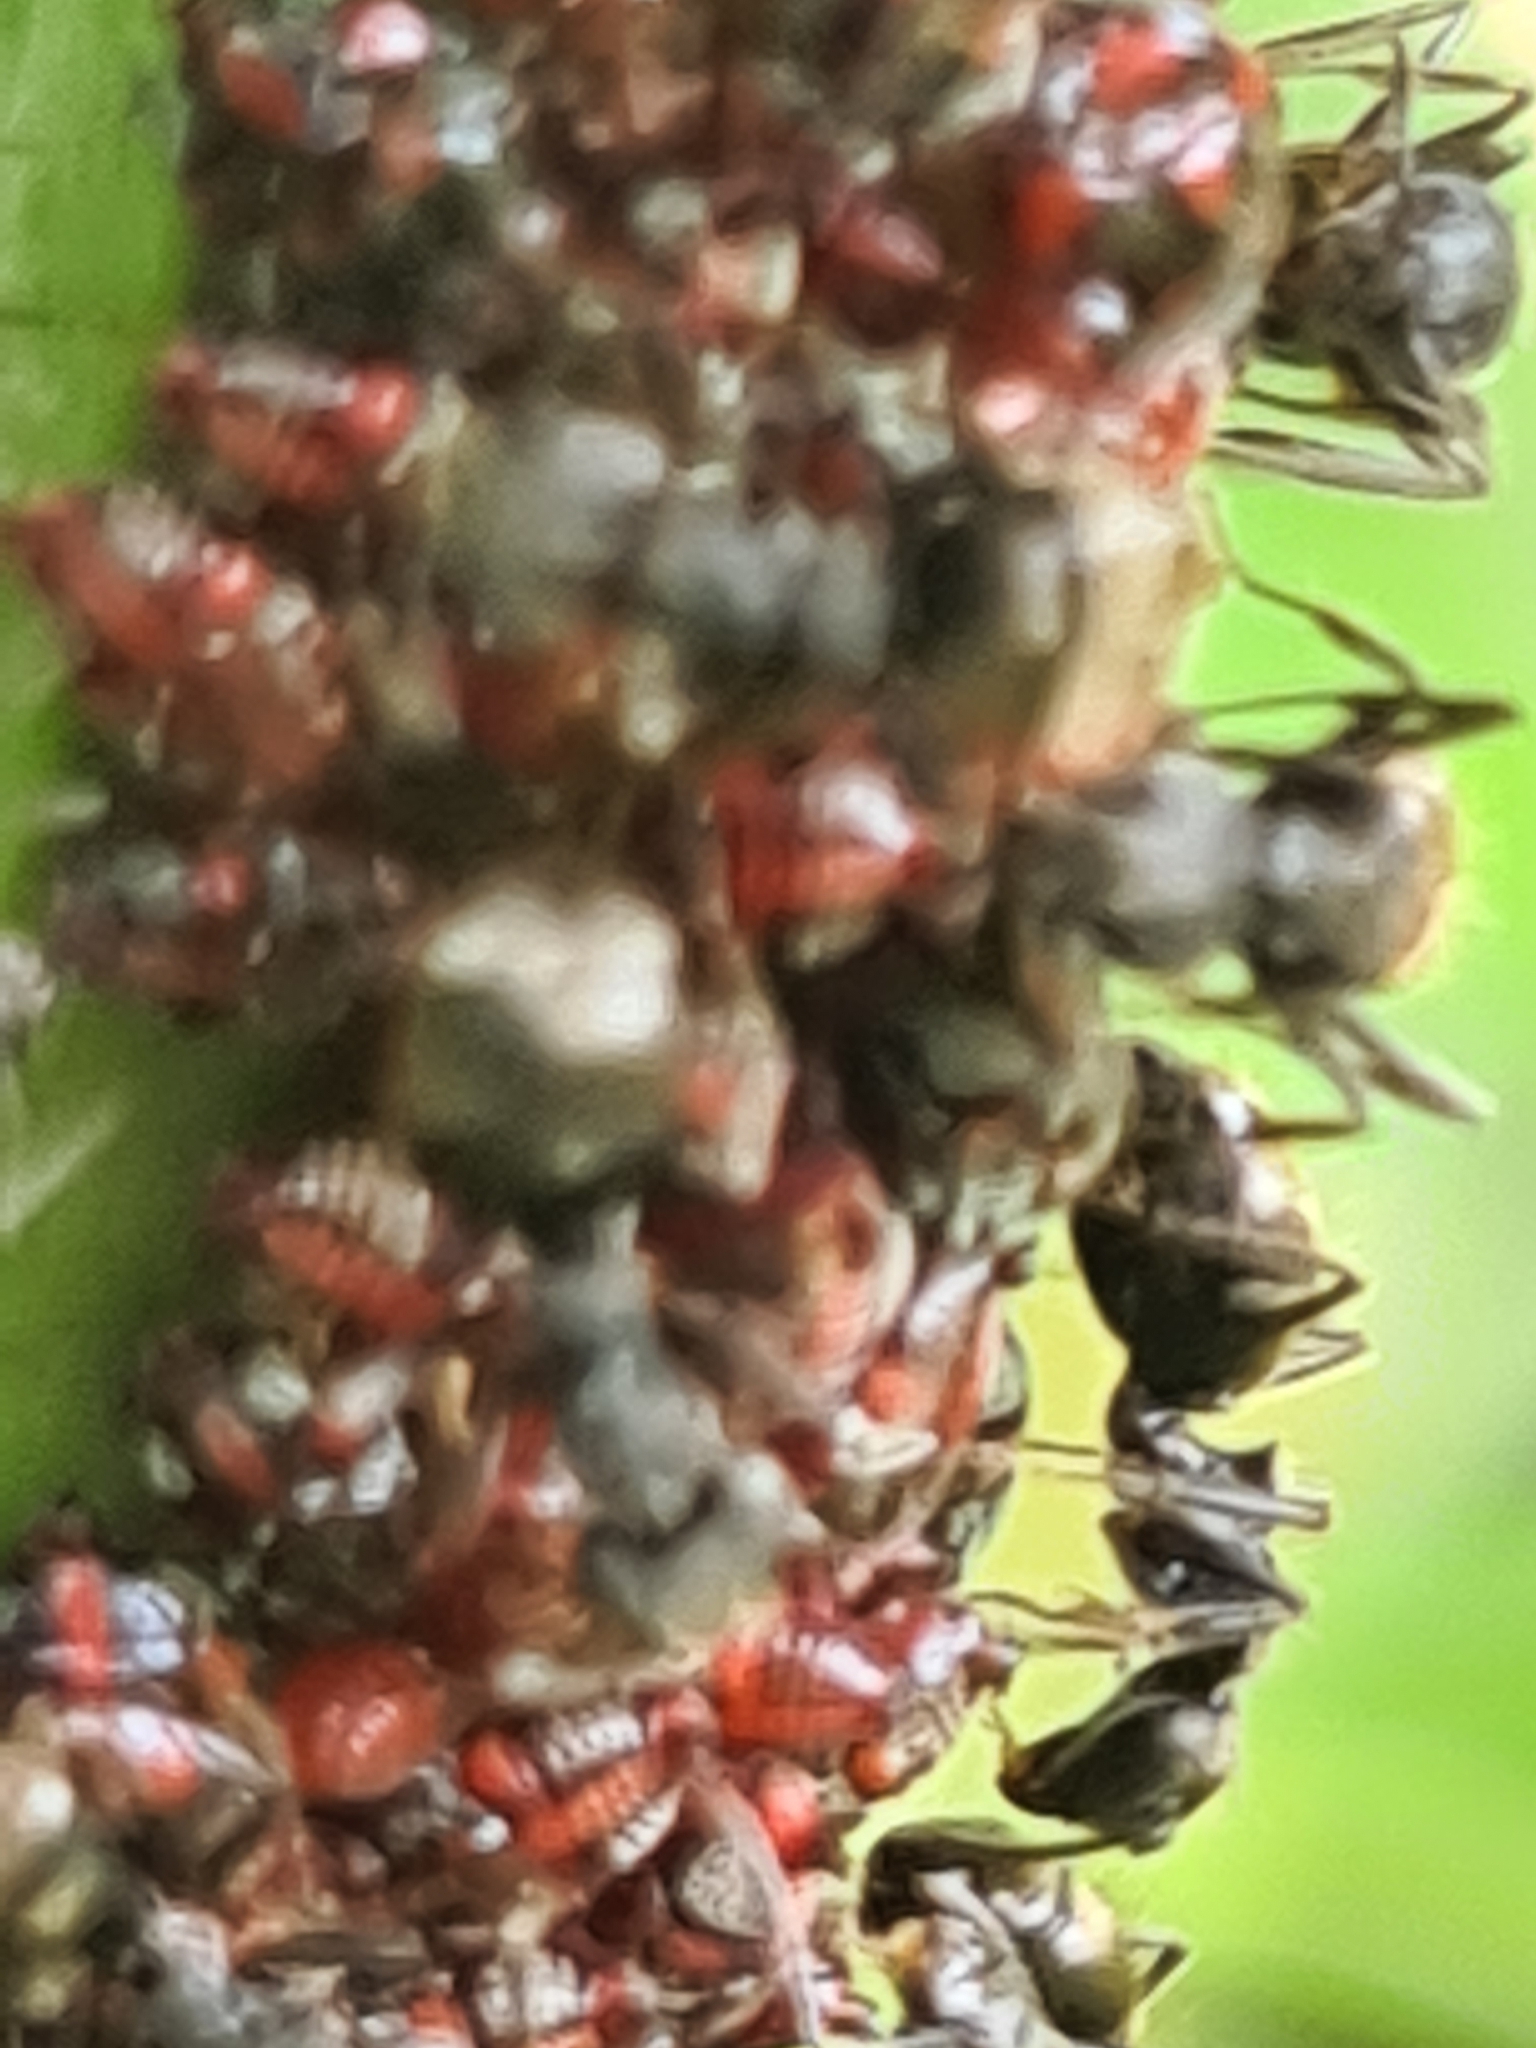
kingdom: Animalia
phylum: Arthropoda
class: Insecta
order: Hymenoptera
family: Formicidae
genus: Dolichoderus
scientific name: Dolichoderus bispinosus
